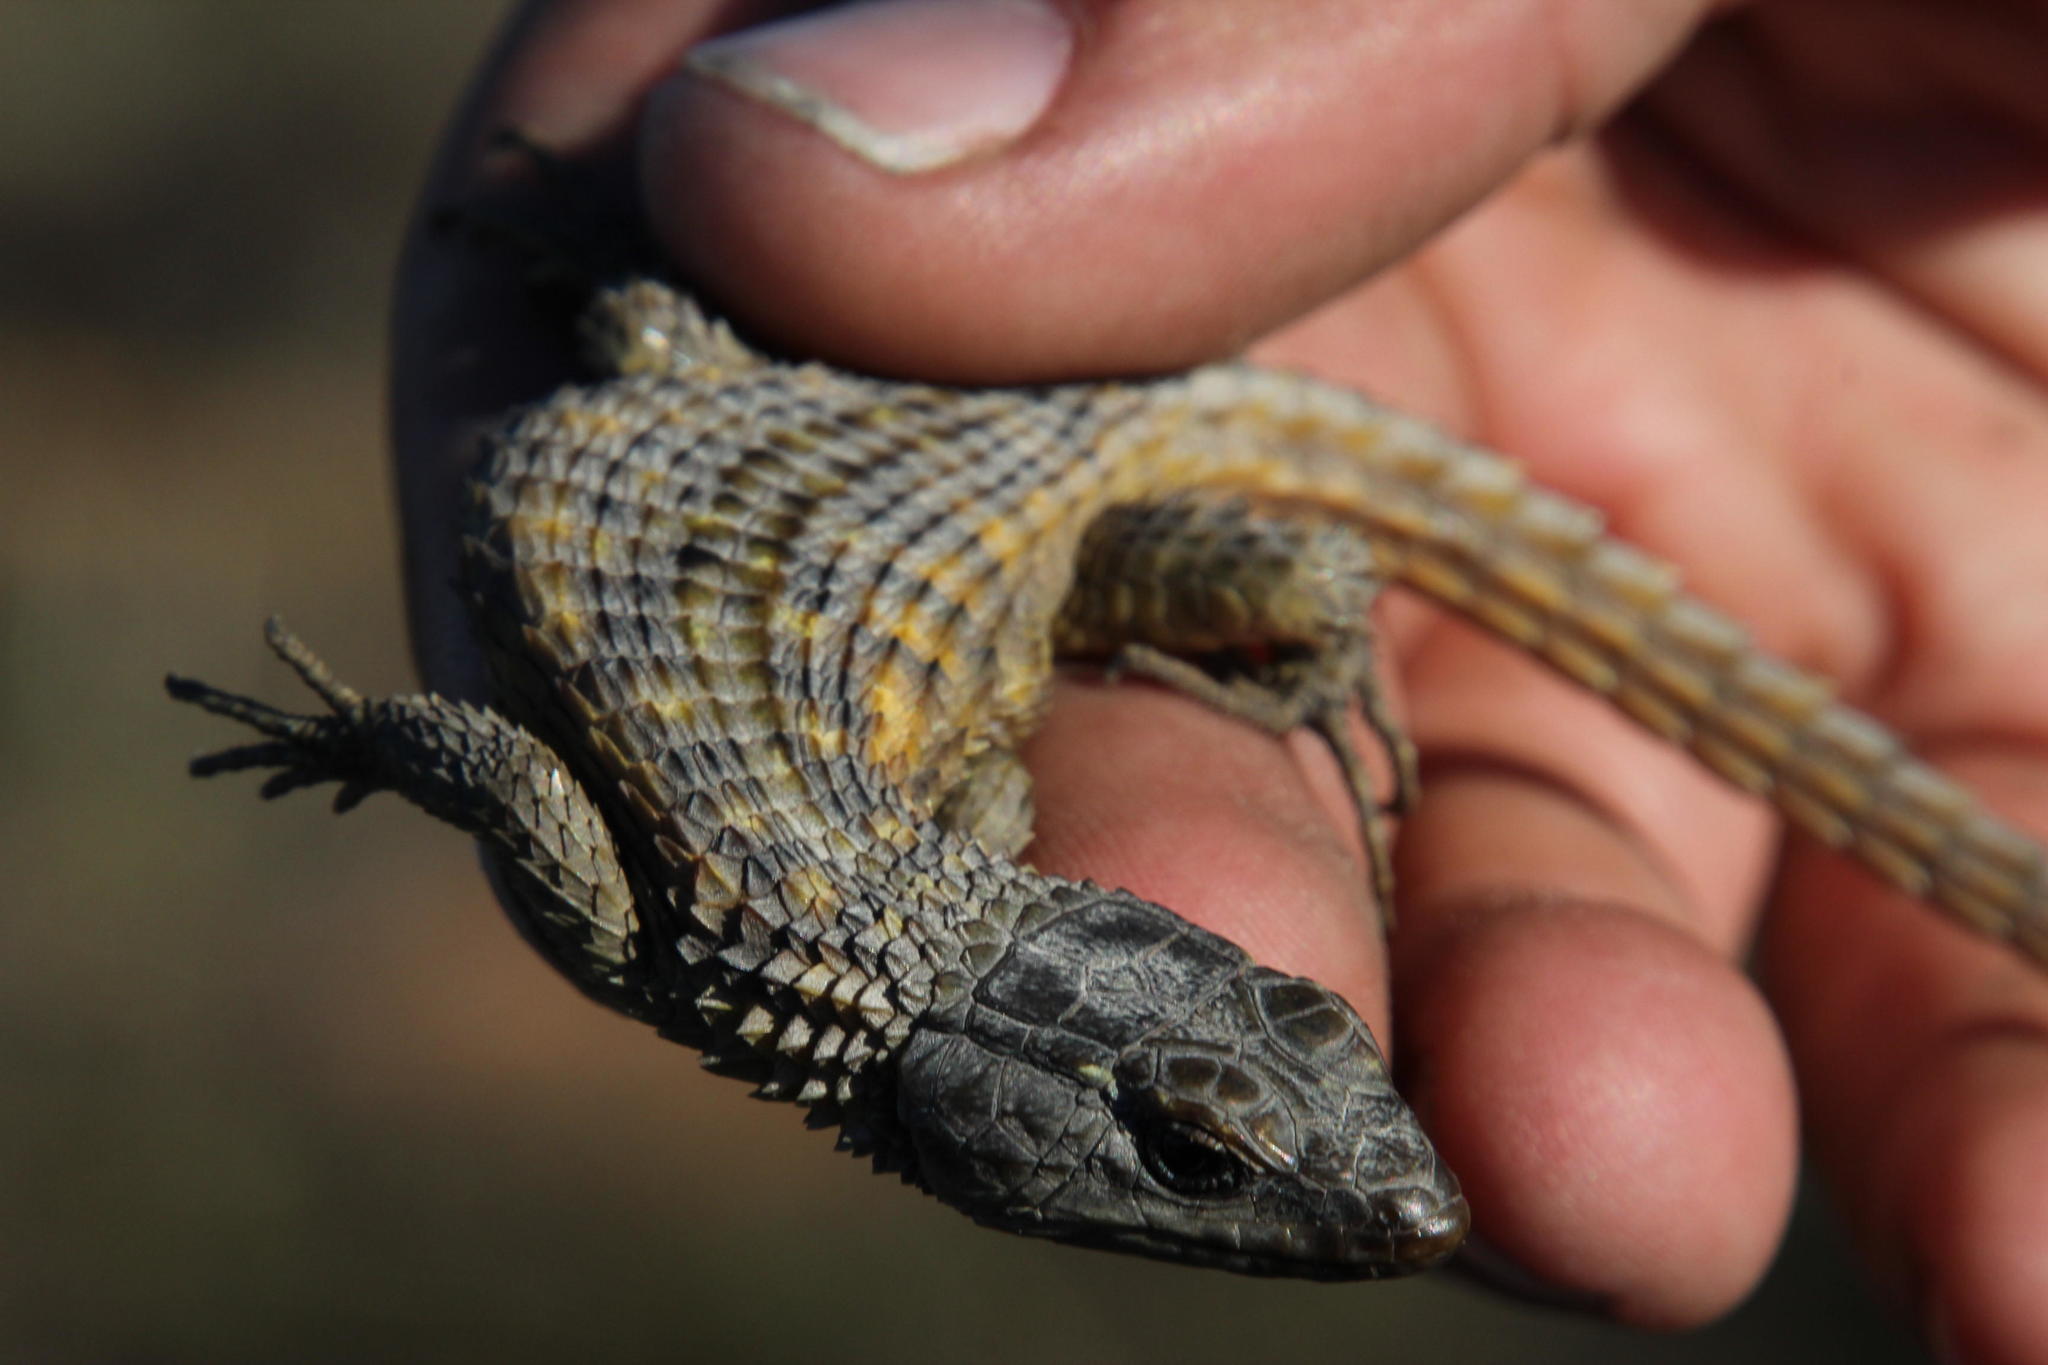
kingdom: Animalia
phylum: Chordata
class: Squamata
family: Cordylidae
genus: Cordylus
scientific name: Cordylus cordylus
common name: Cape girdled lizard
